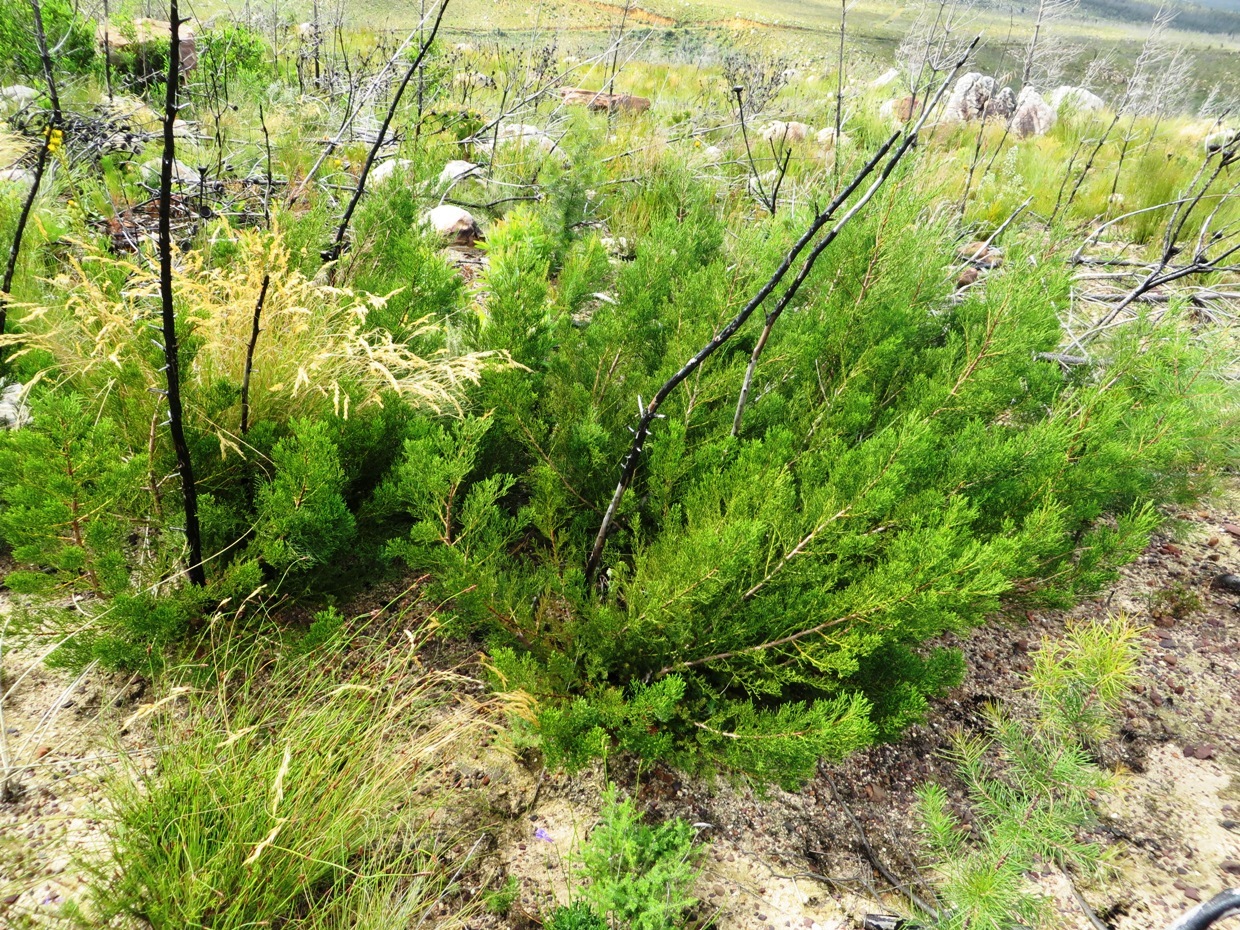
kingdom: Plantae
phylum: Tracheophyta
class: Pinopsida
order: Pinales
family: Cupressaceae
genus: Widdringtonia
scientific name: Widdringtonia nodiflora
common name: Cape cypress
